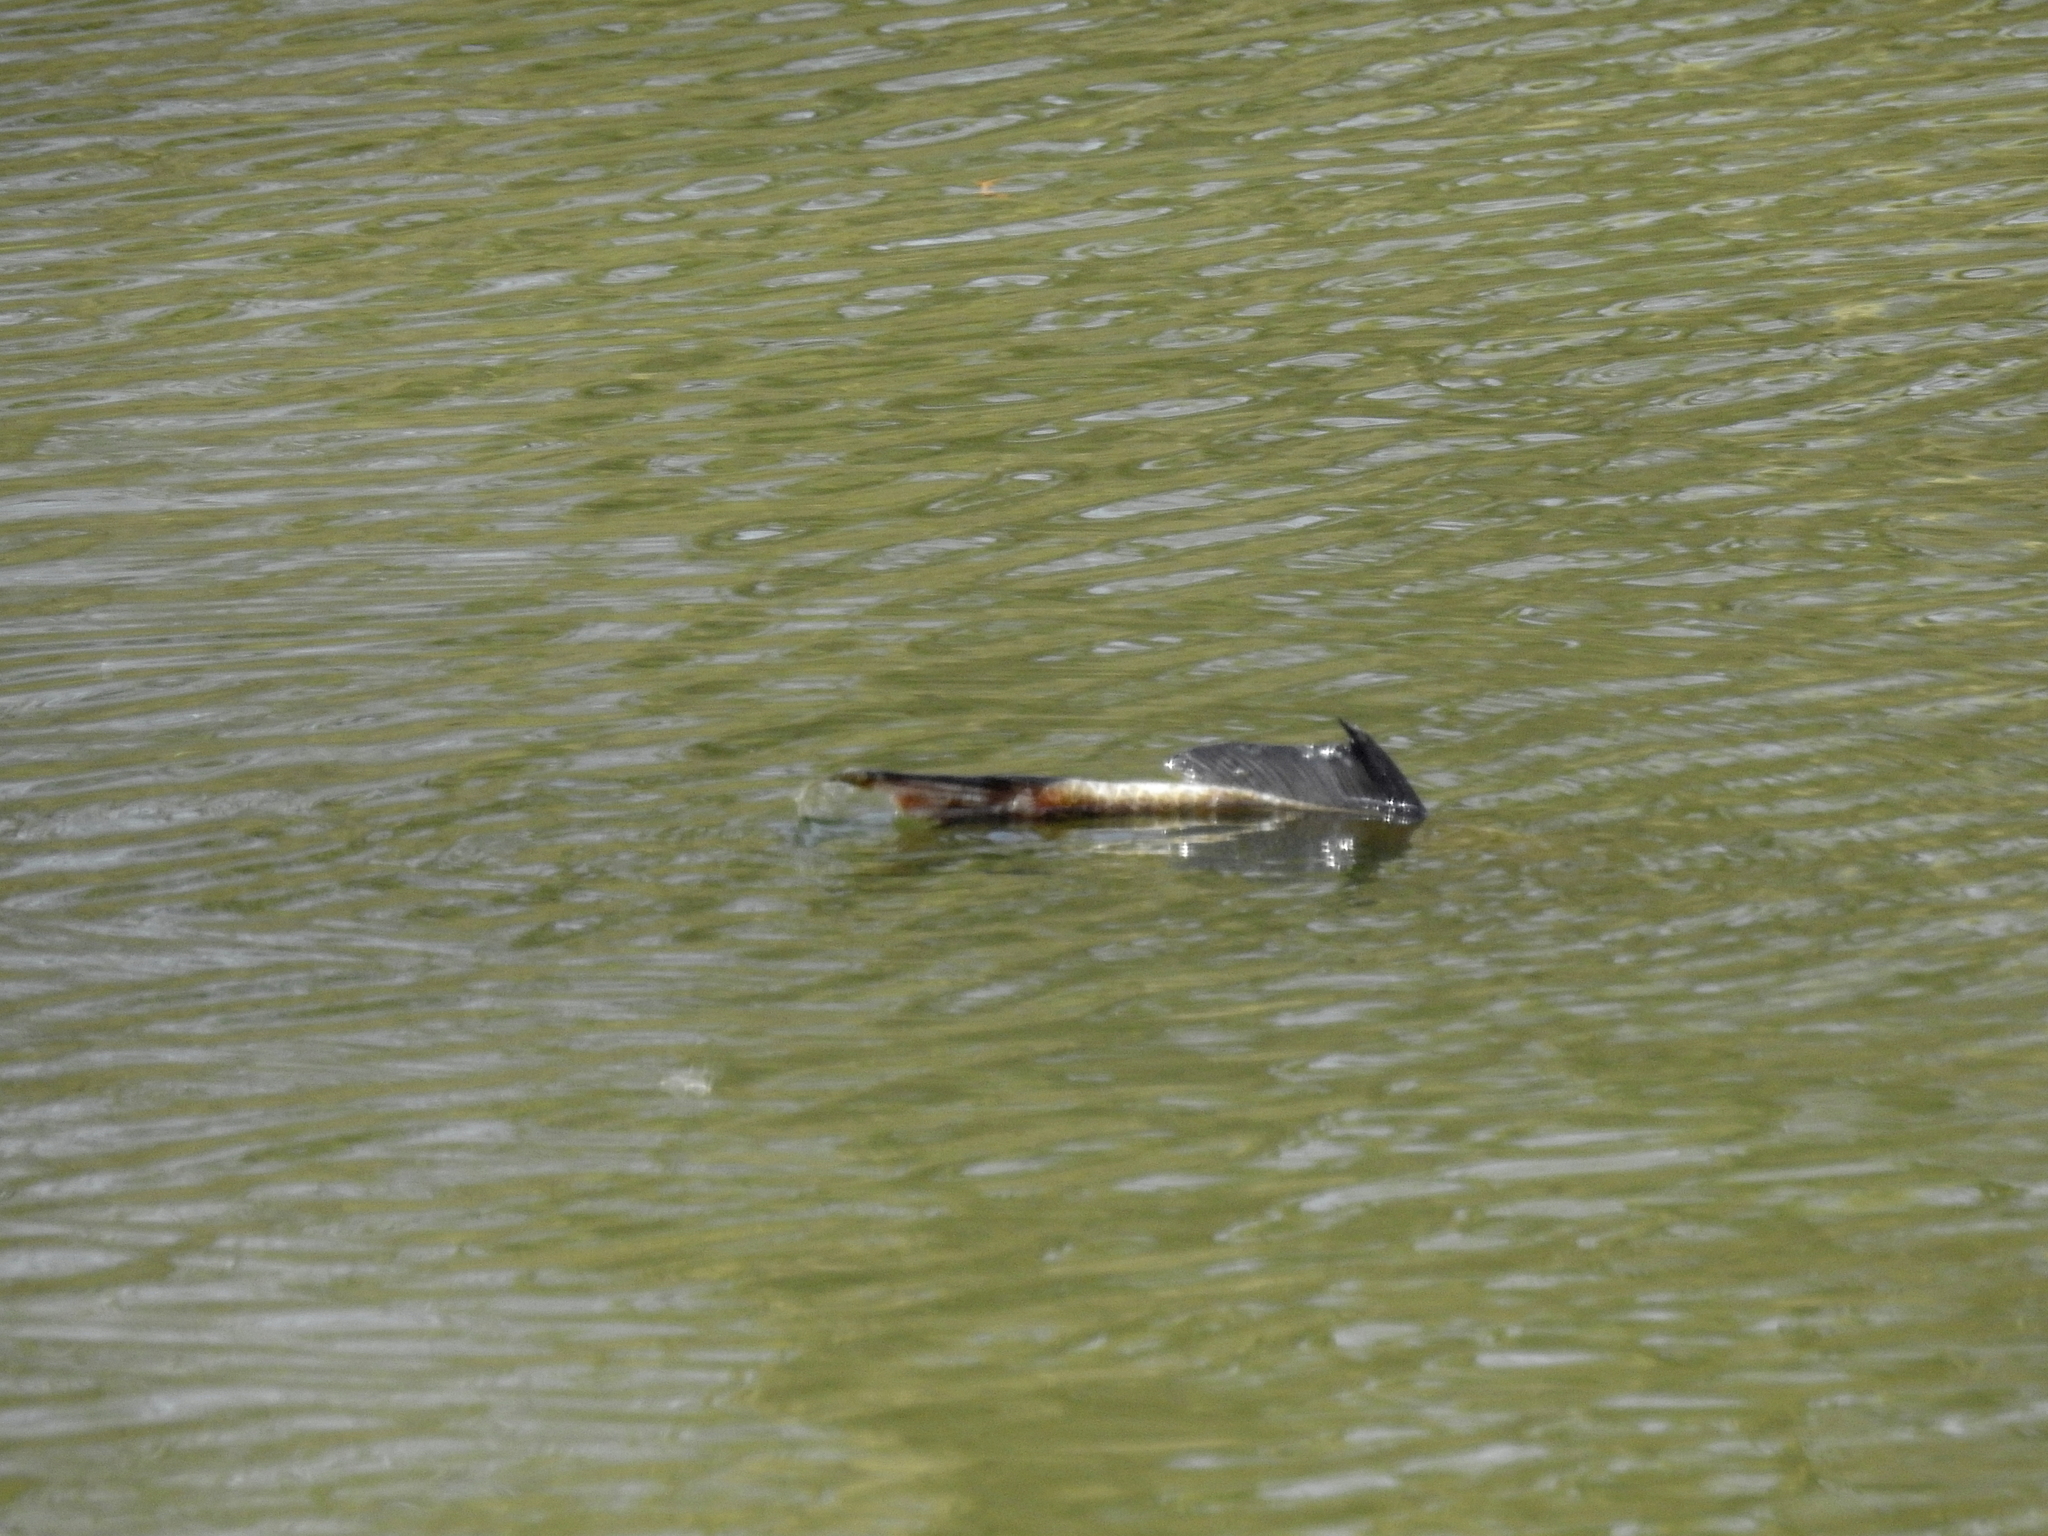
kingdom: Animalia
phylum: Chordata
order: Cypriniformes
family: Cyprinidae
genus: Cyprinus
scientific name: Cyprinus carpio
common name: Common carp
